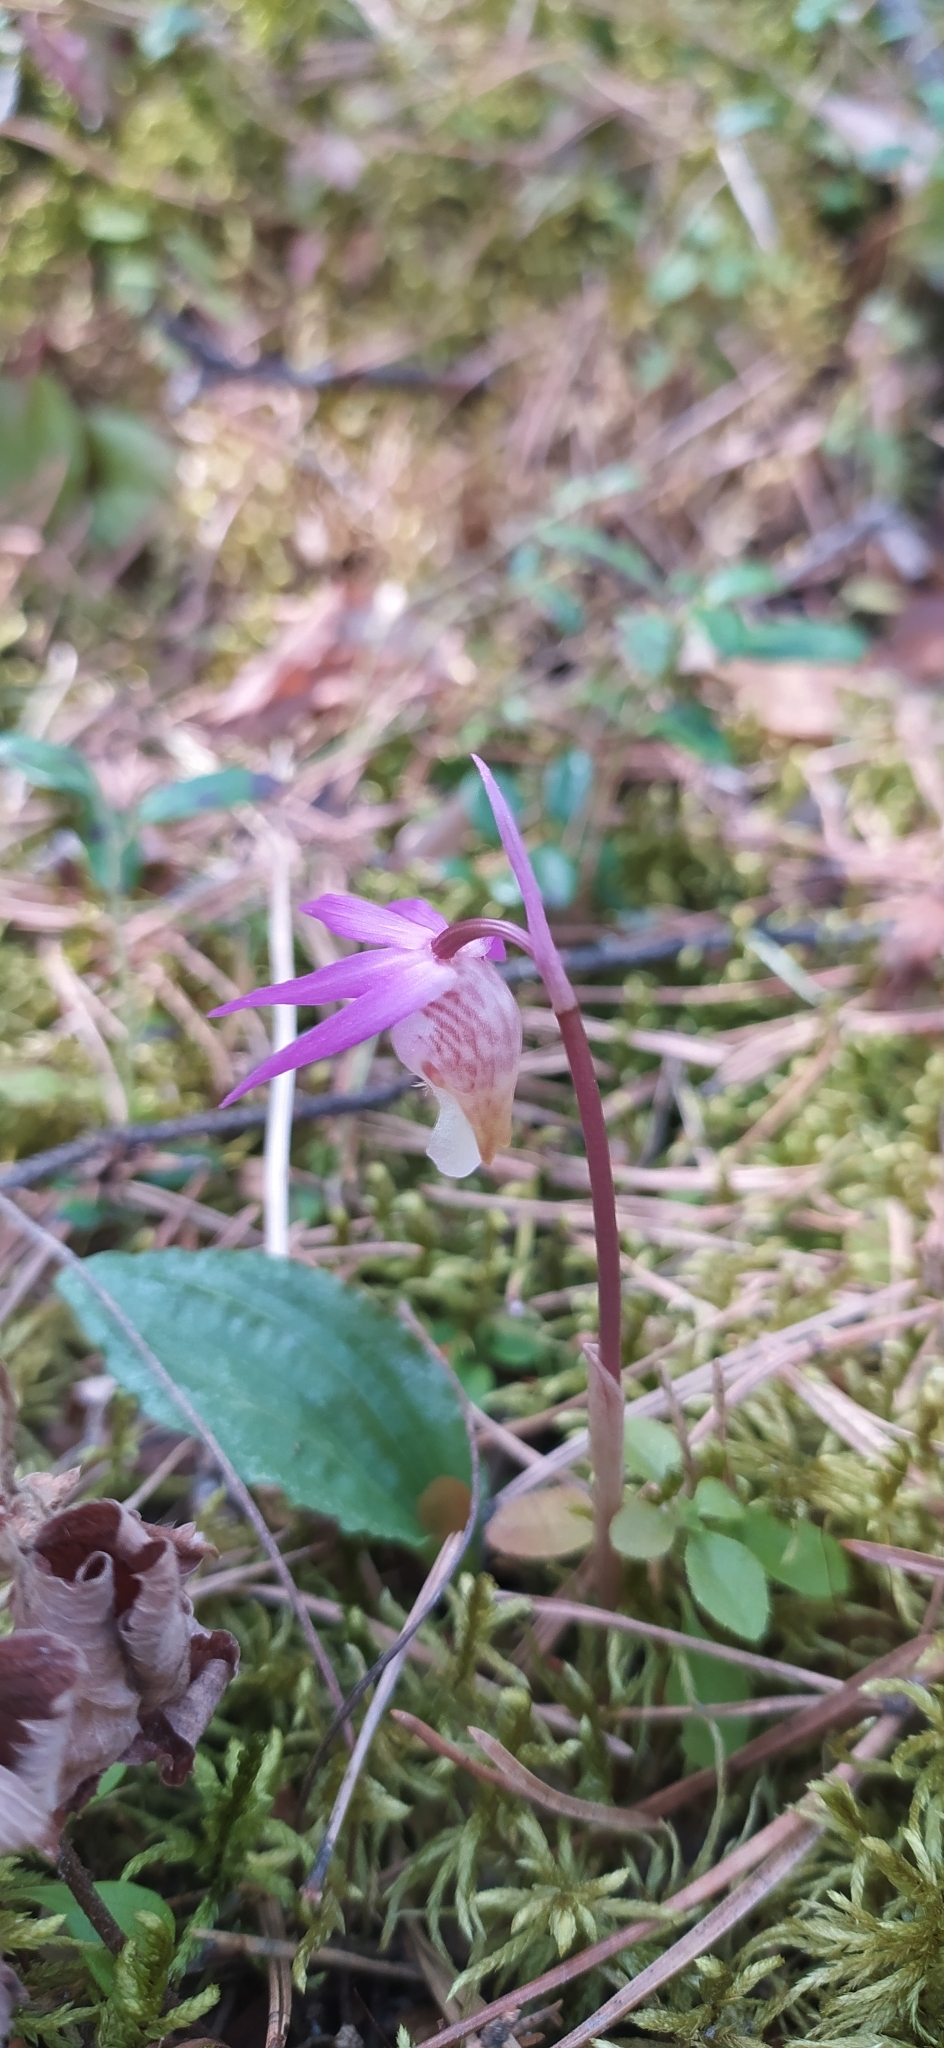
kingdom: Plantae
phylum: Tracheophyta
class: Liliopsida
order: Asparagales
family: Orchidaceae
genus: Calypso
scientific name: Calypso bulbosa
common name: Calypso
